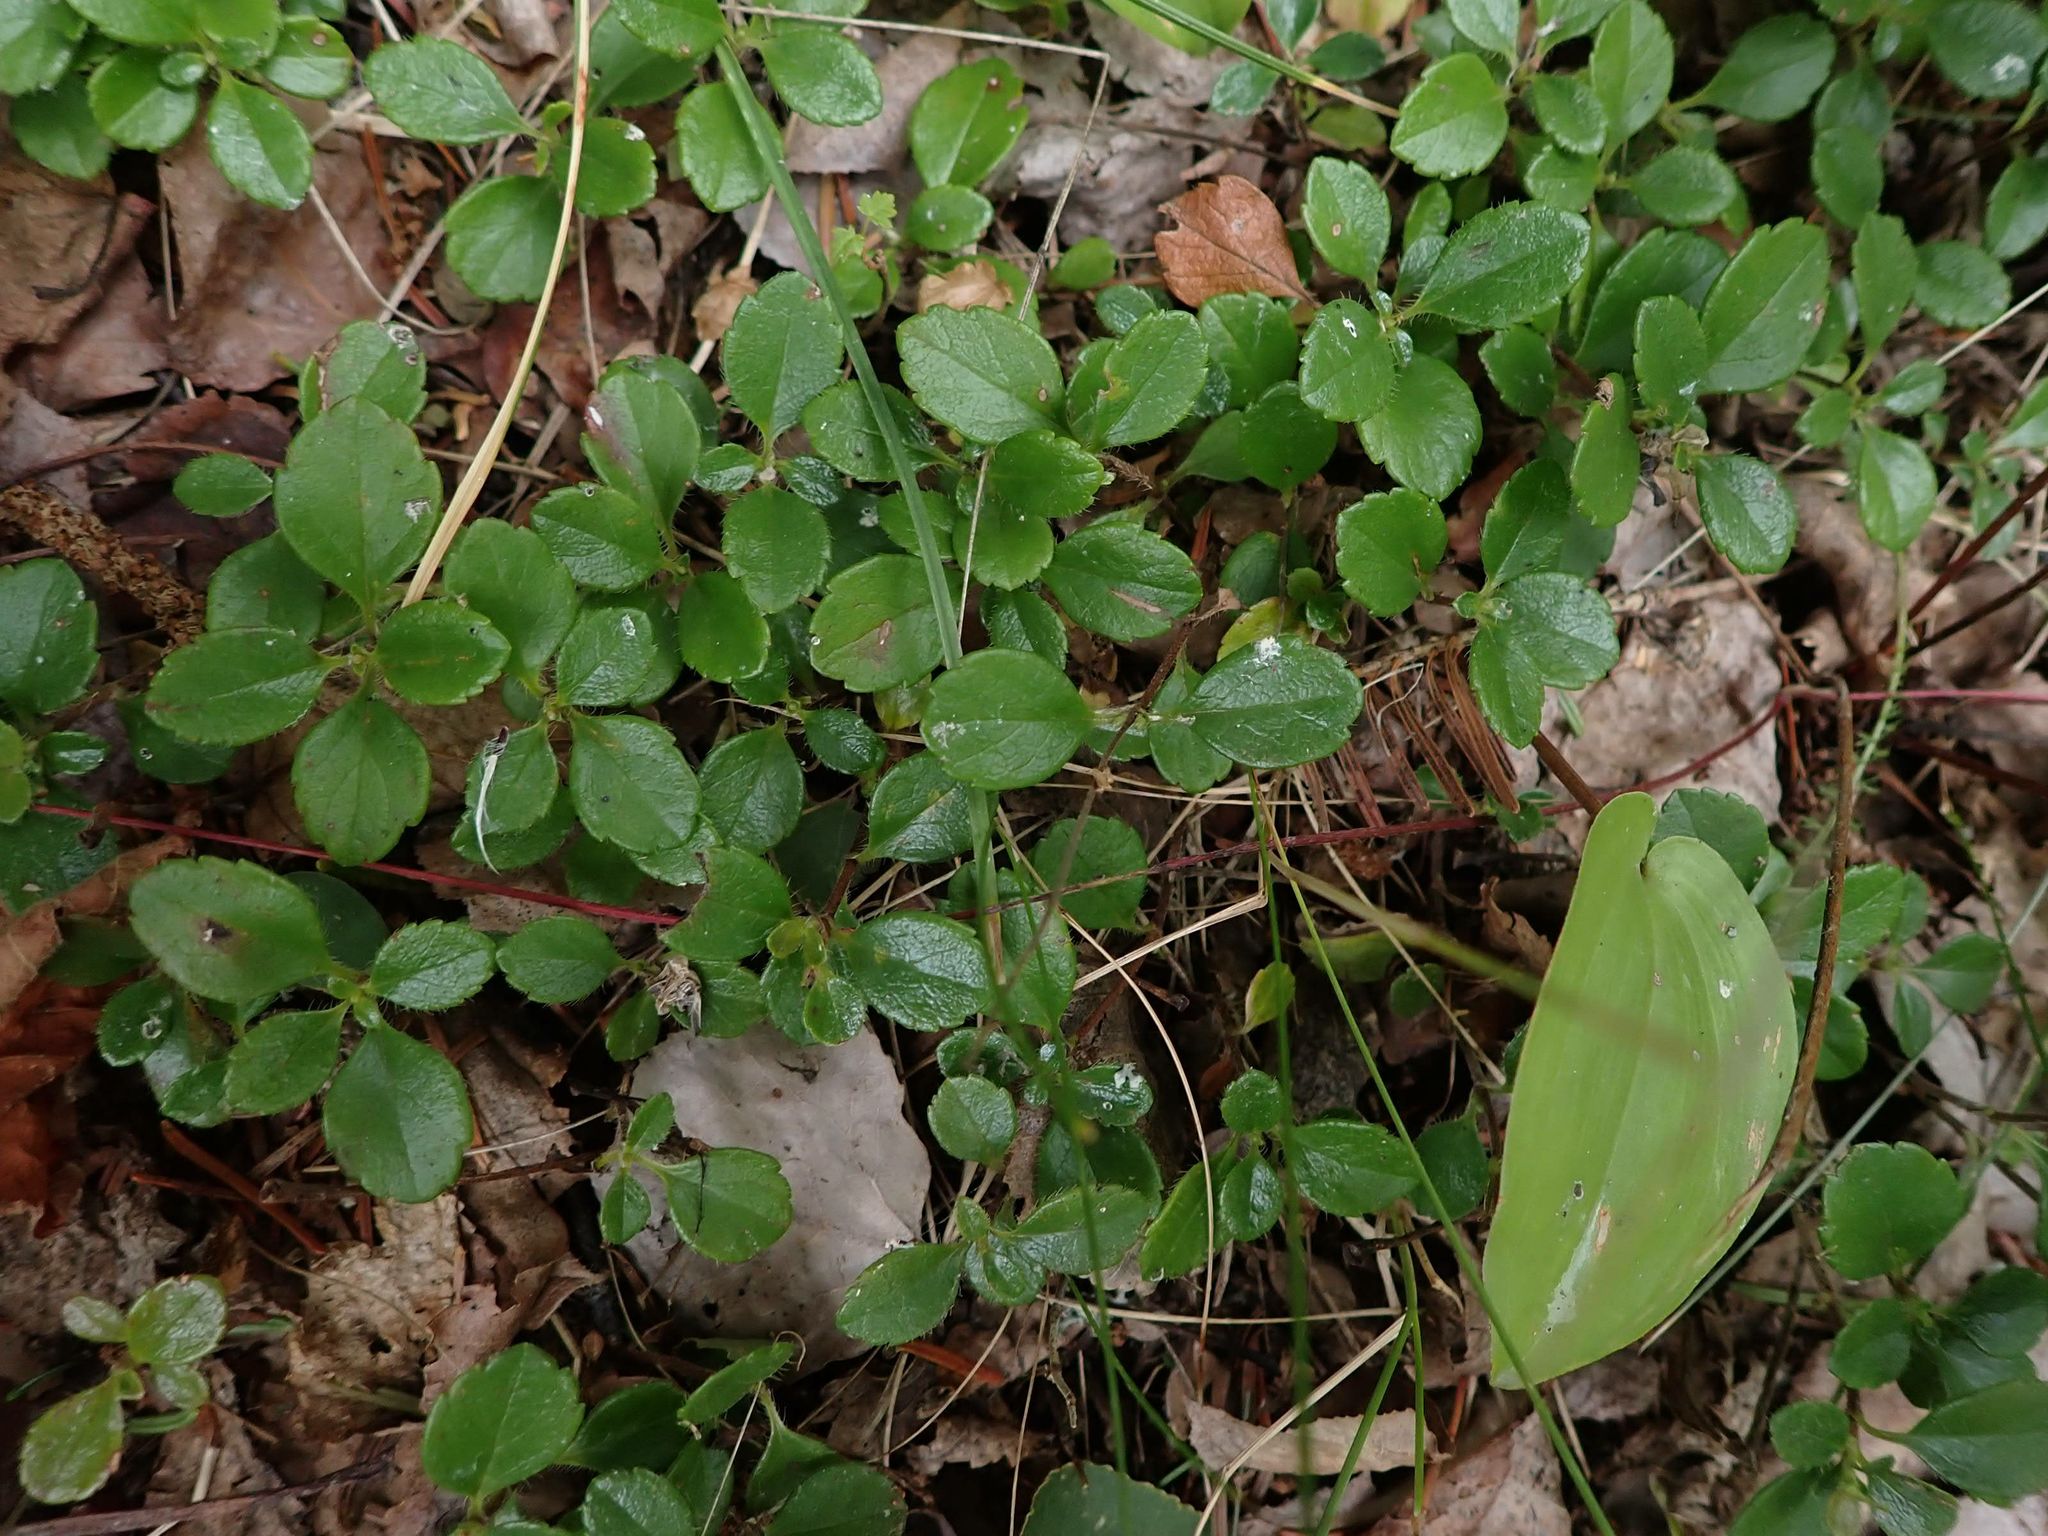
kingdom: Plantae
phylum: Tracheophyta
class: Magnoliopsida
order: Dipsacales
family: Caprifoliaceae
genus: Linnaea
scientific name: Linnaea borealis
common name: Twinflower
